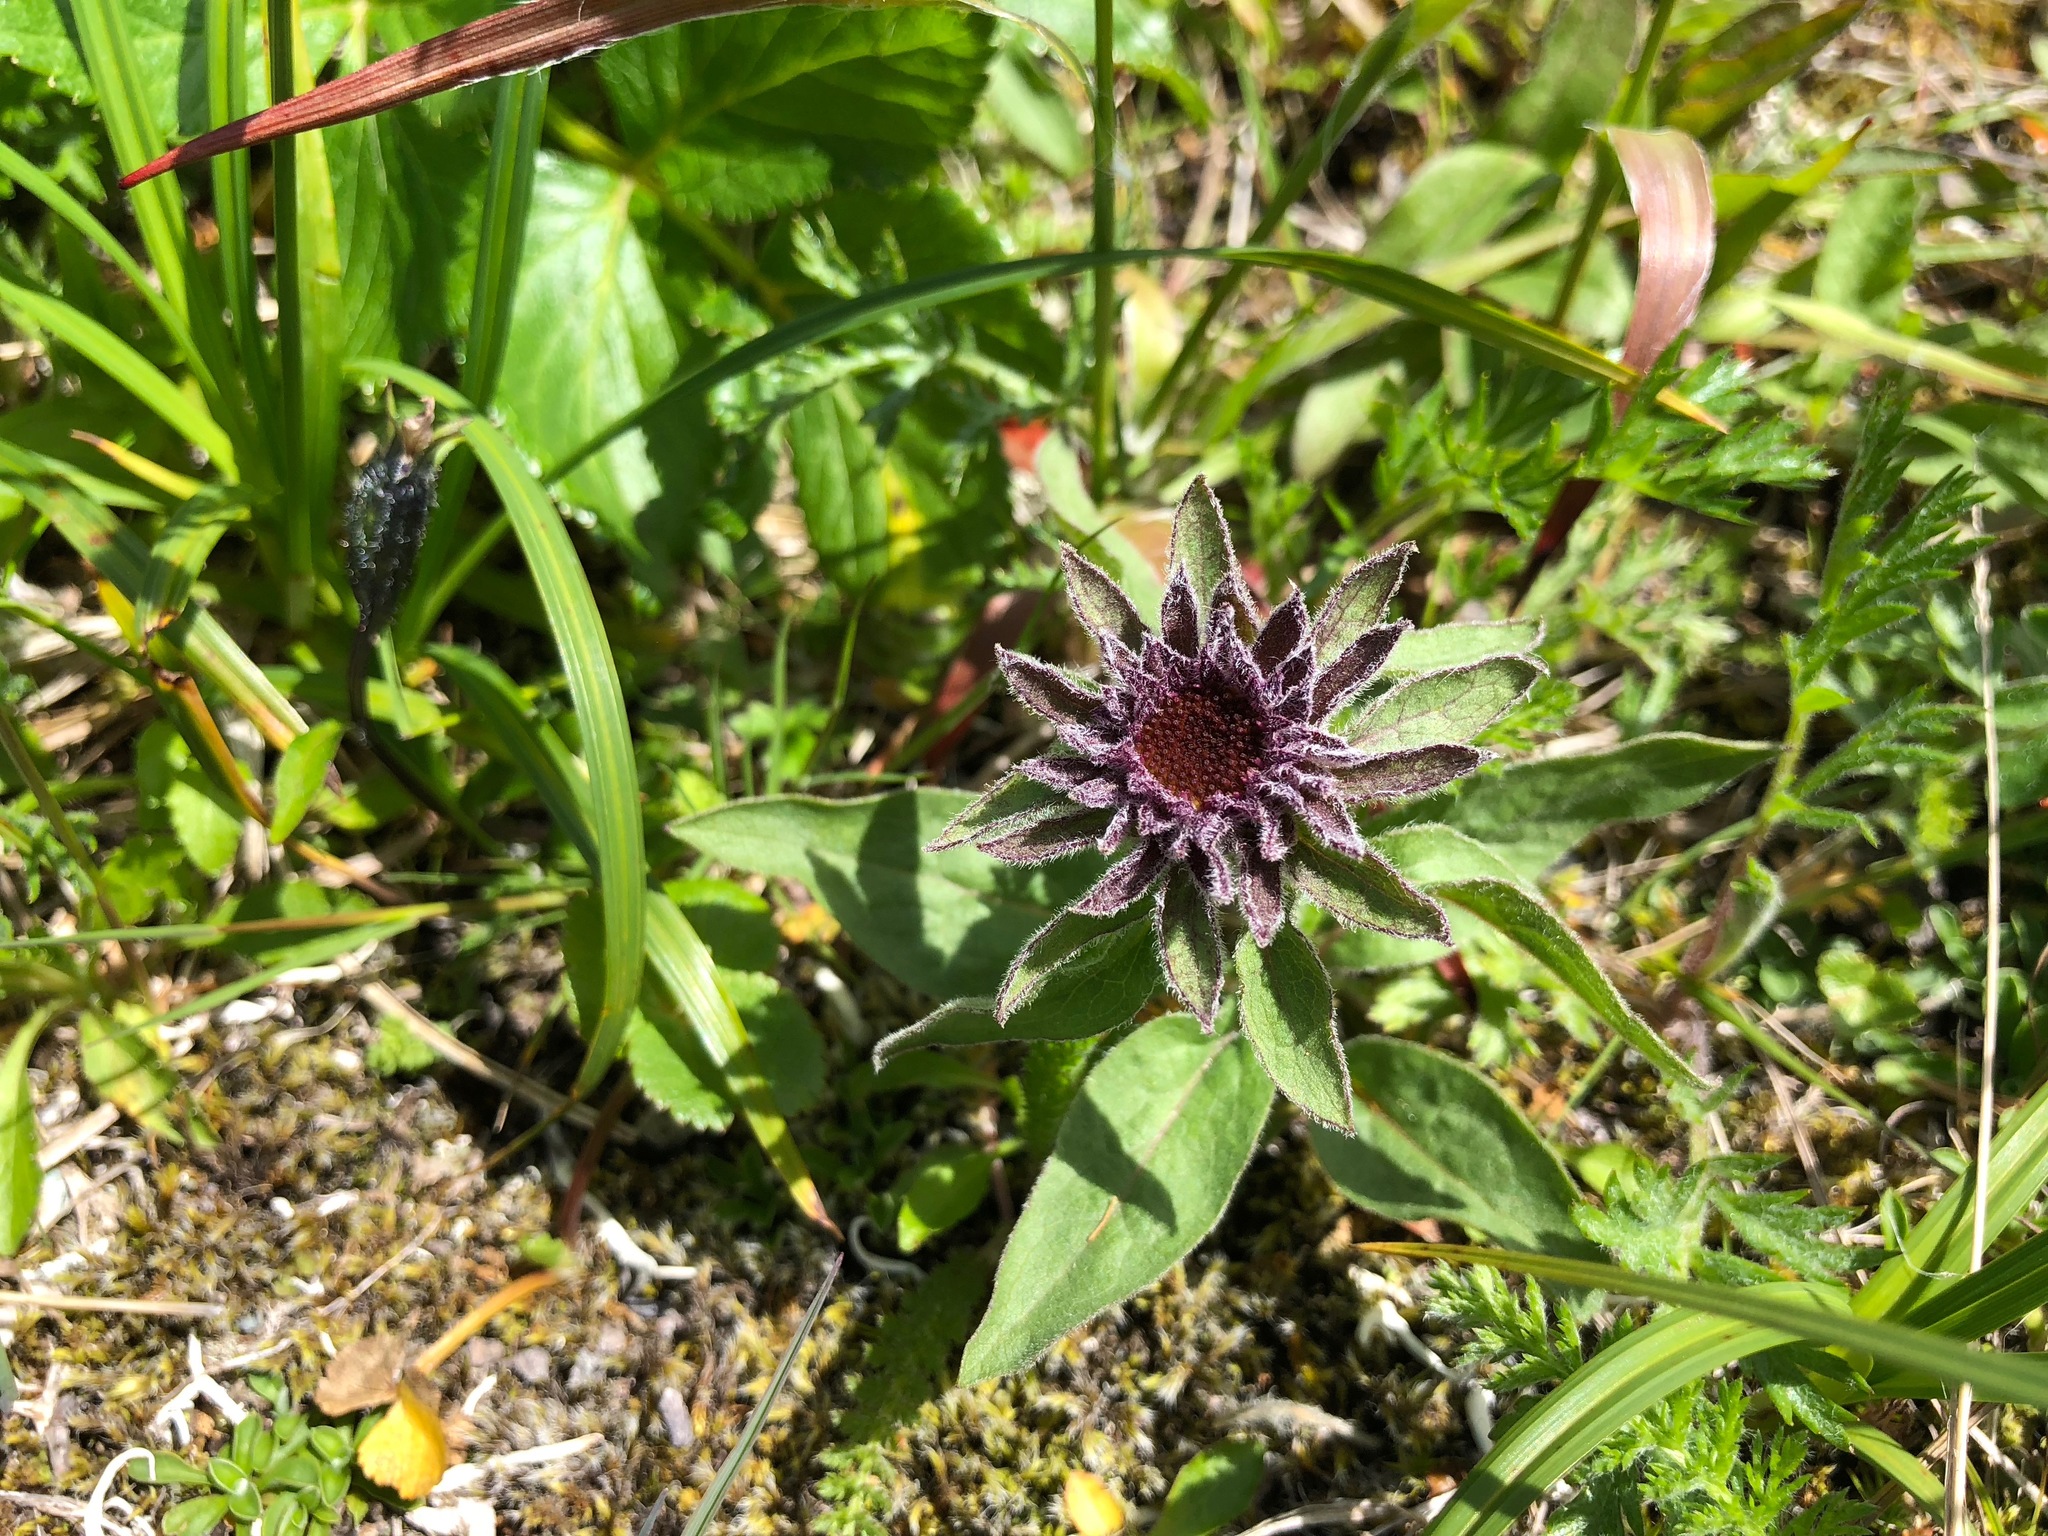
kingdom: Plantae
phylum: Tracheophyta
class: Magnoliopsida
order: Asterales
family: Asteraceae
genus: Eurybia
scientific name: Eurybia sibirica
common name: Arctic aster
